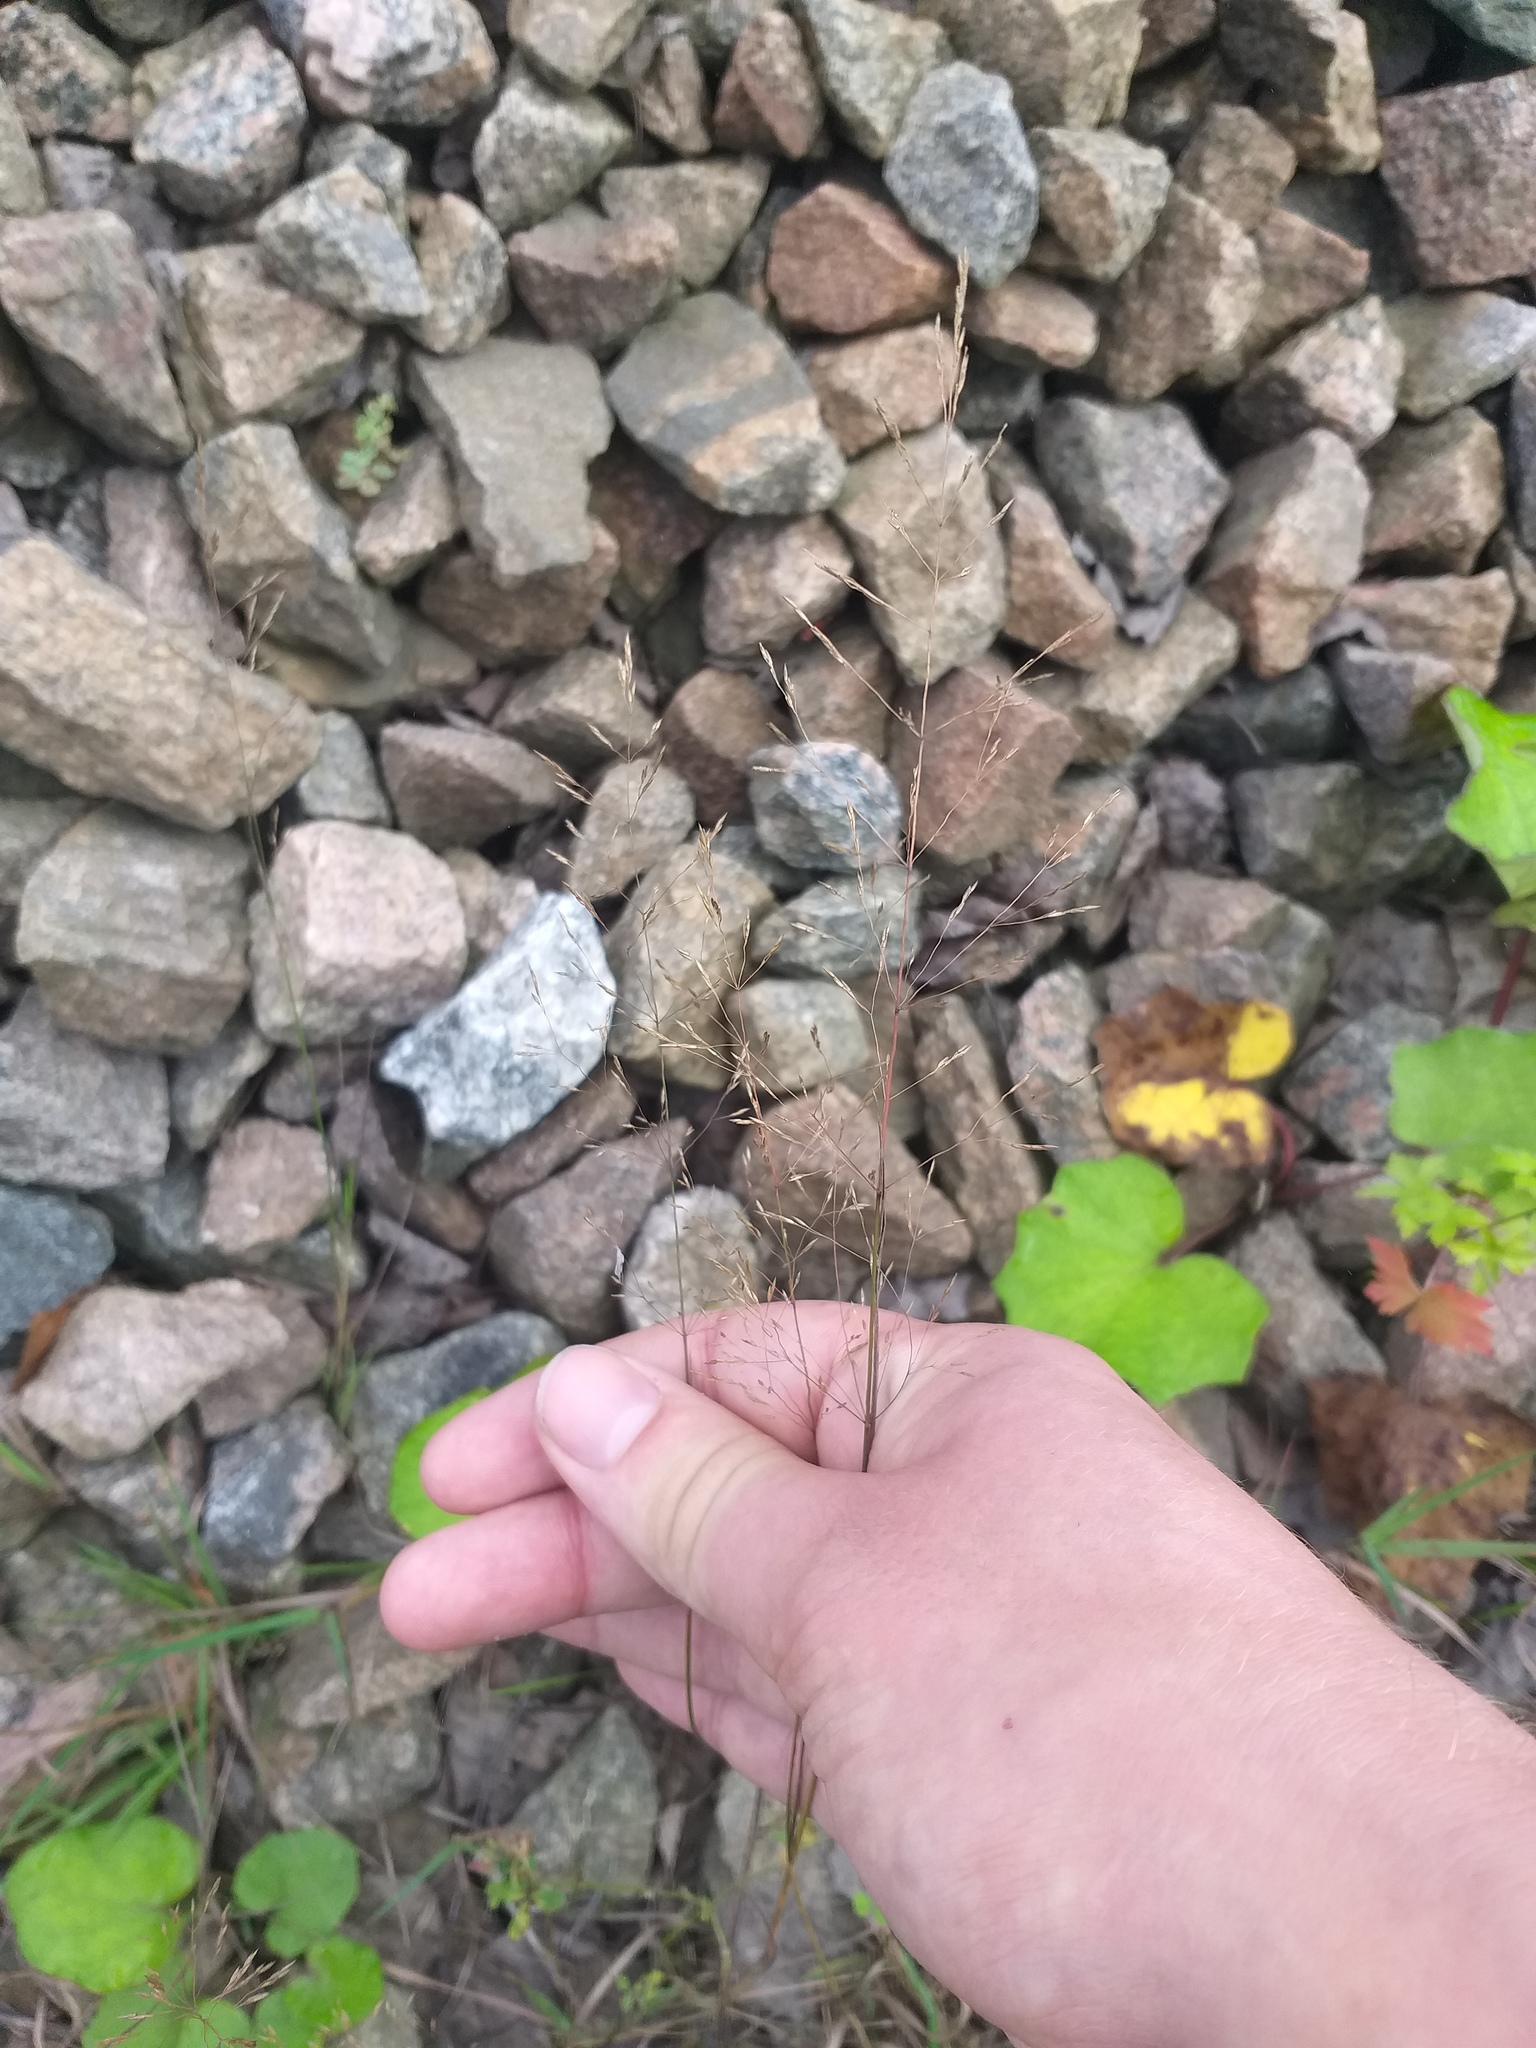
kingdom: Plantae
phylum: Tracheophyta
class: Liliopsida
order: Poales
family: Poaceae
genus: Agrostis
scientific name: Agrostis gigantea
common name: Black bent
